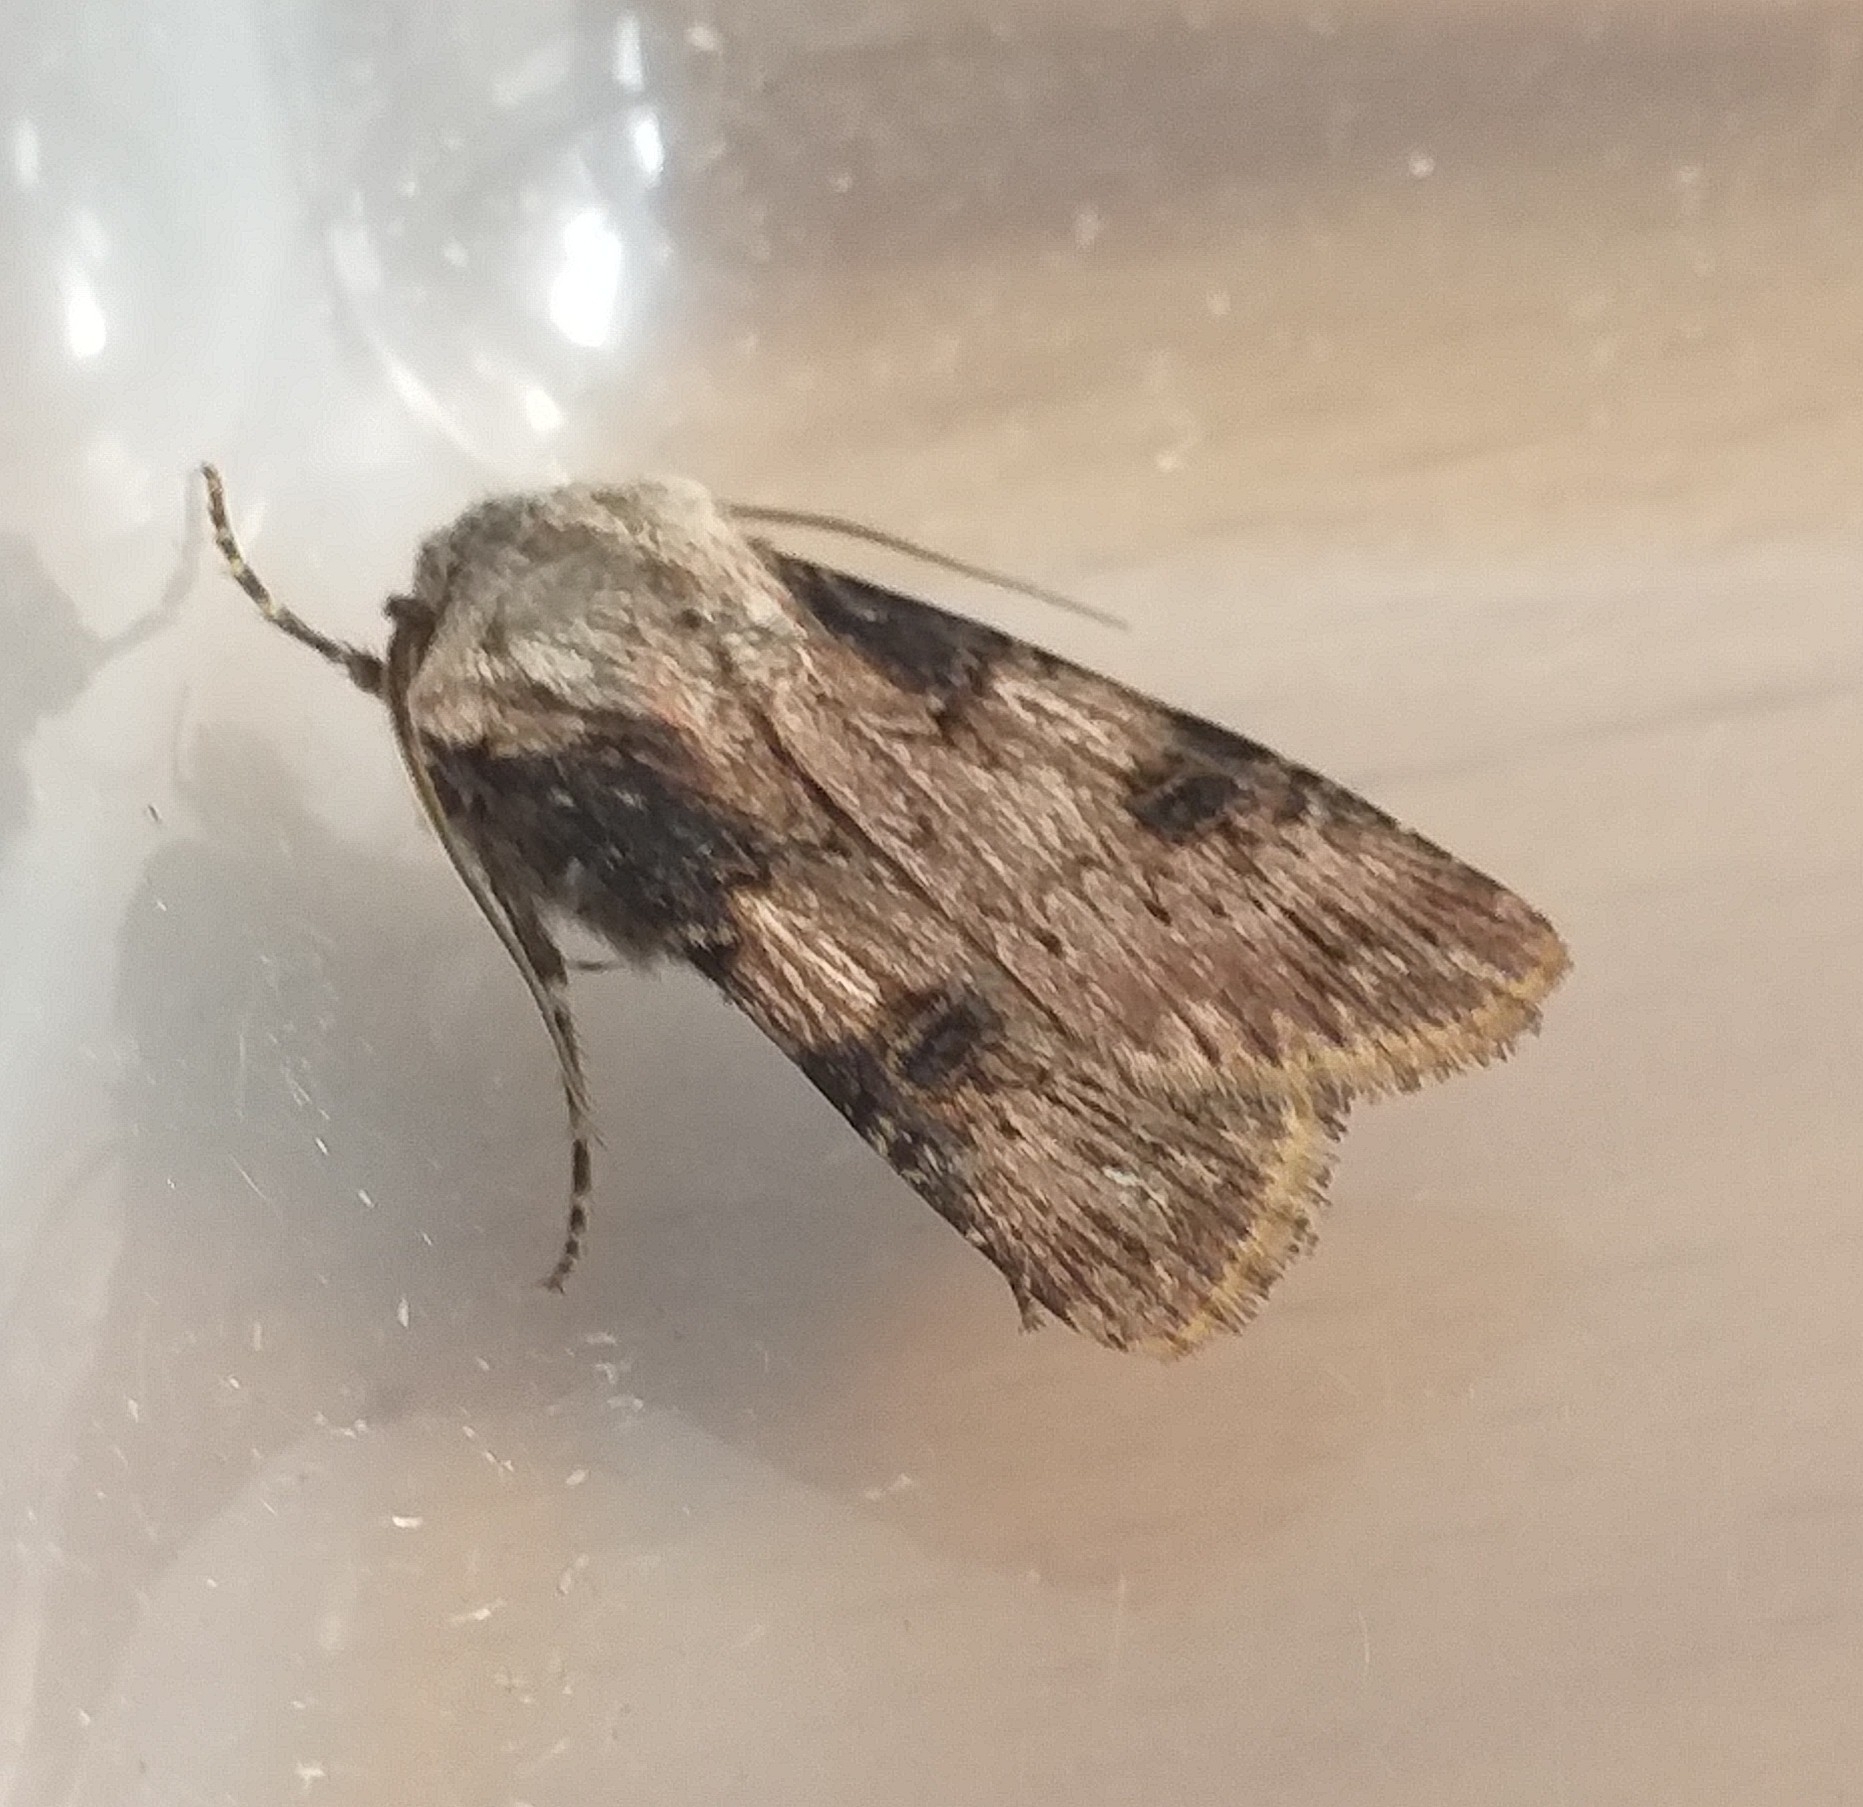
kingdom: Animalia
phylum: Arthropoda
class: Insecta
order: Lepidoptera
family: Noctuidae
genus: Agrotis
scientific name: Agrotis puta
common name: Shuttle-shaped dart
